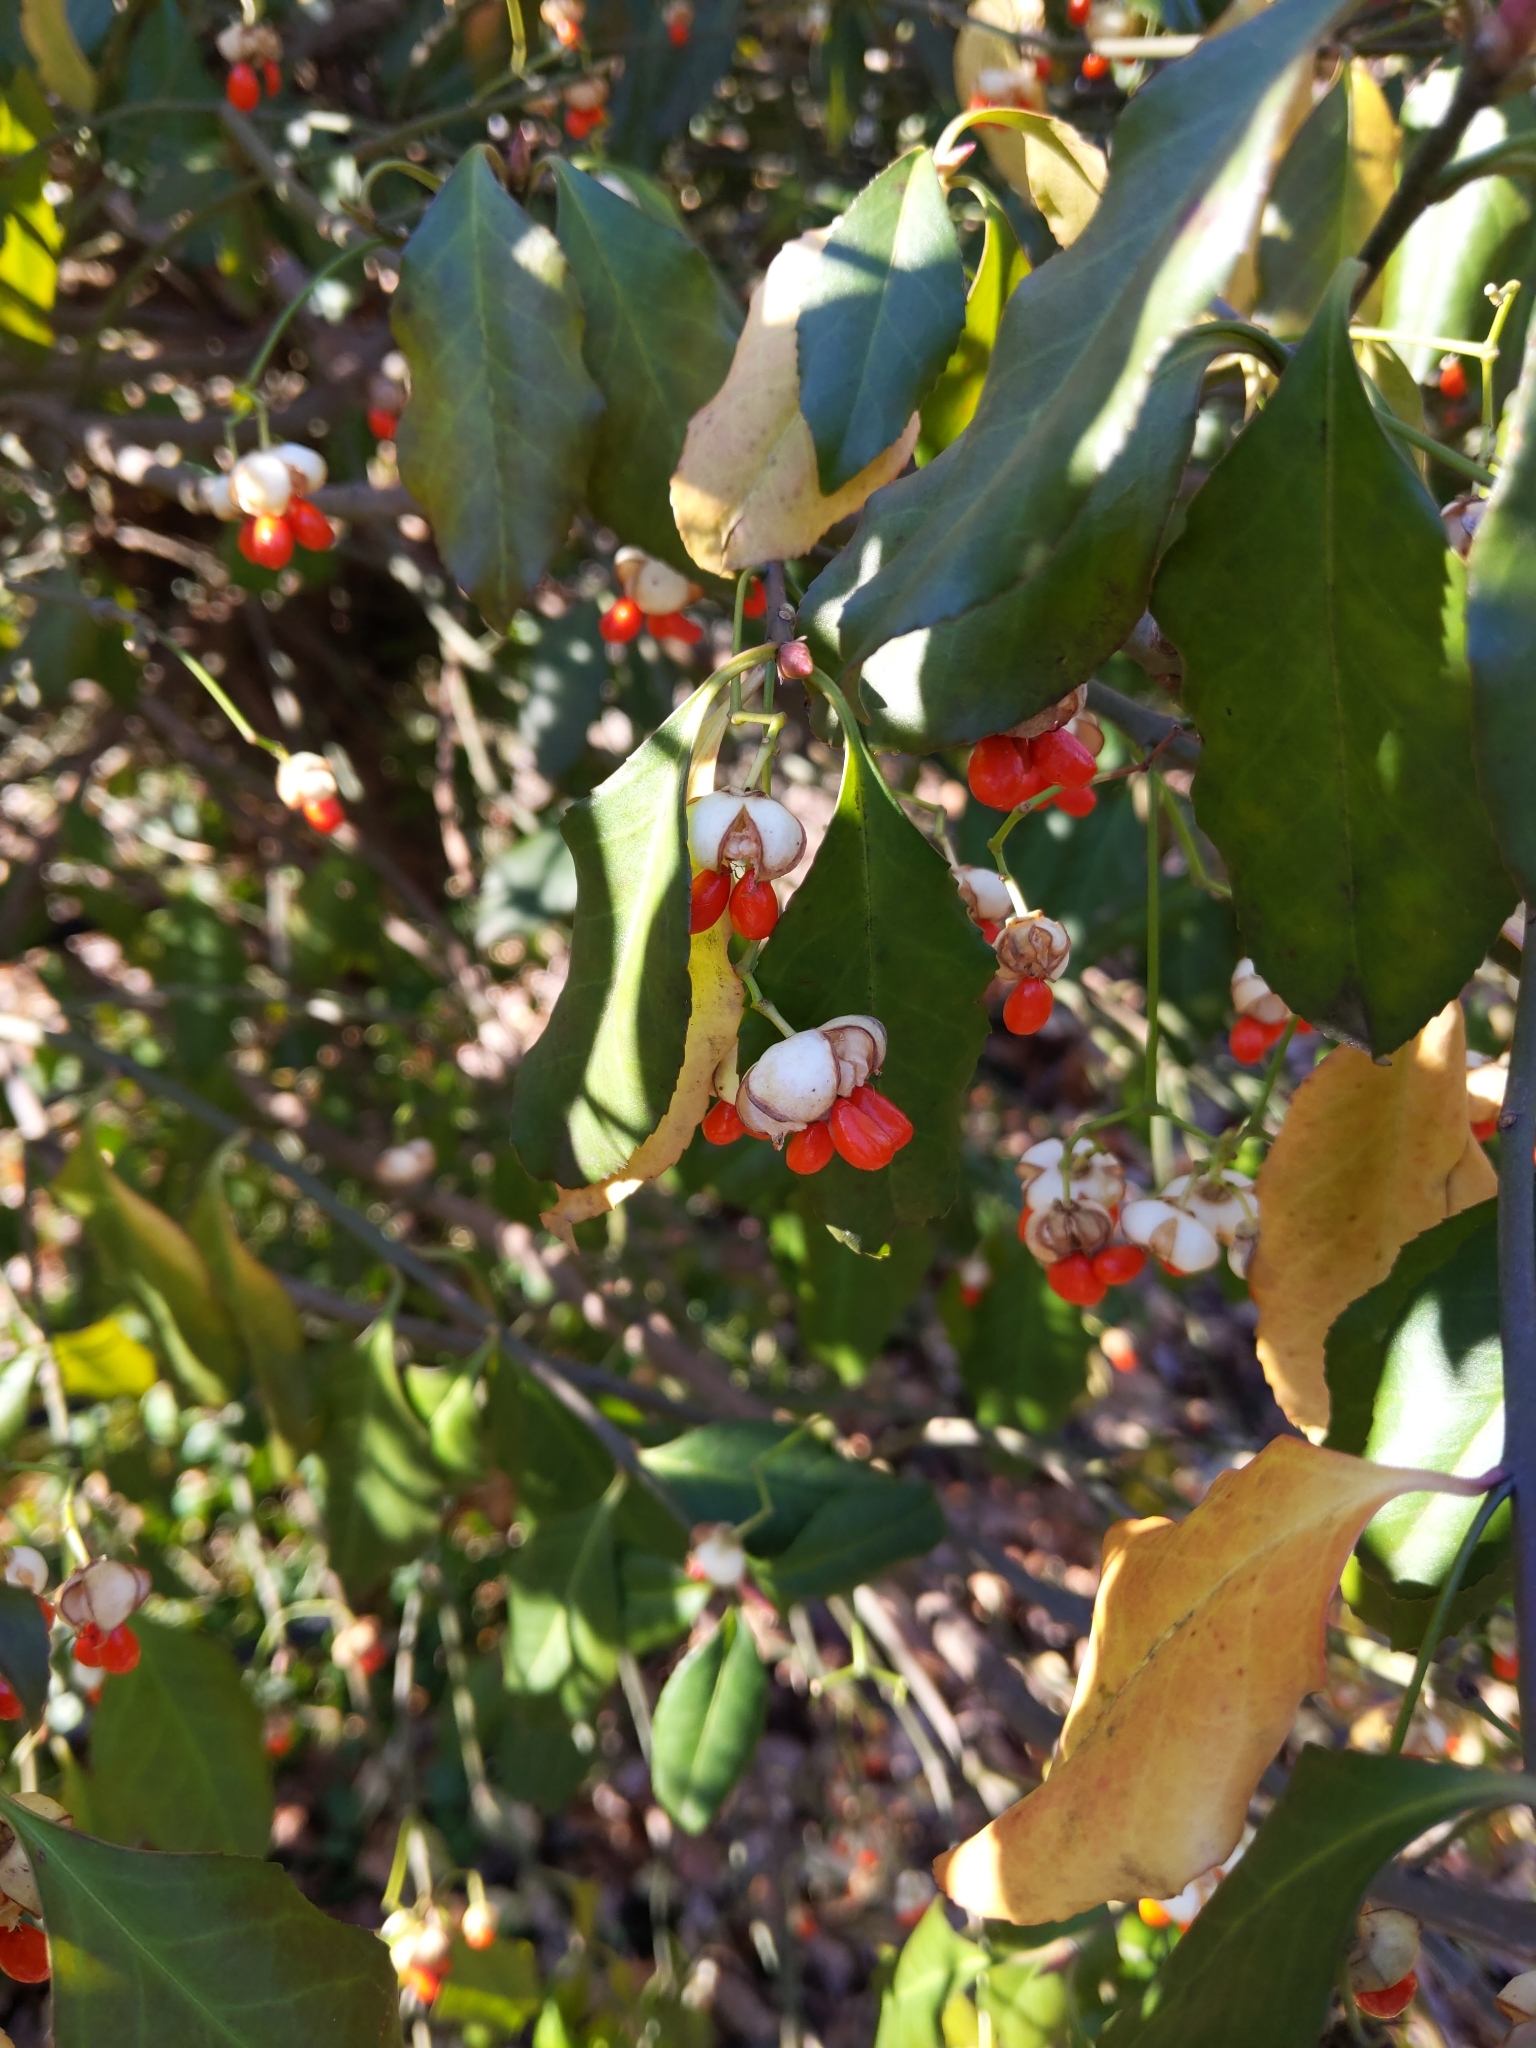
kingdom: Plantae
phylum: Tracheophyta
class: Magnoliopsida
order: Celastrales
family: Celastraceae
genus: Euonymus
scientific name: Euonymus fortunei
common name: Climbing euonymus
